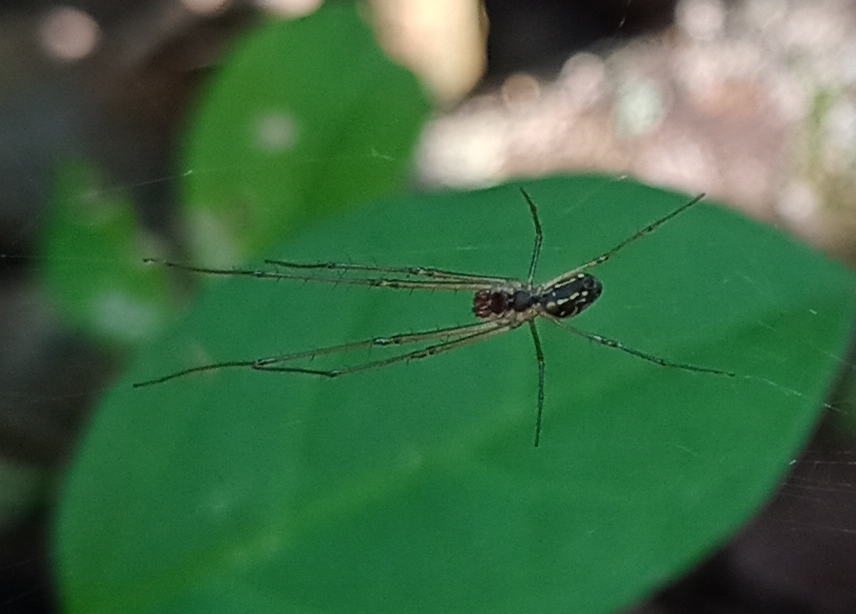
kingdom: Animalia
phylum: Arthropoda
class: Arachnida
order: Araneae
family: Tetragnathidae
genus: Leucauge
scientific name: Leucauge volupis
